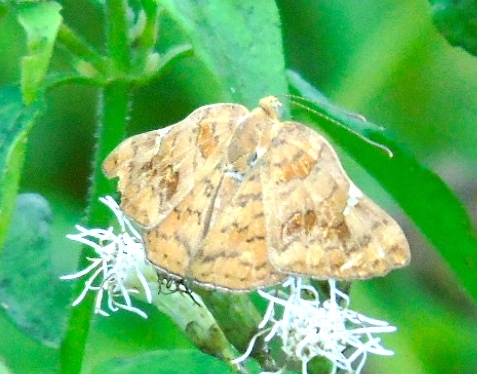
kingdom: Animalia
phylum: Arthropoda
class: Insecta
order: Lepidoptera
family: Riodinidae
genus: Curvie
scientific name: Curvie emesia
